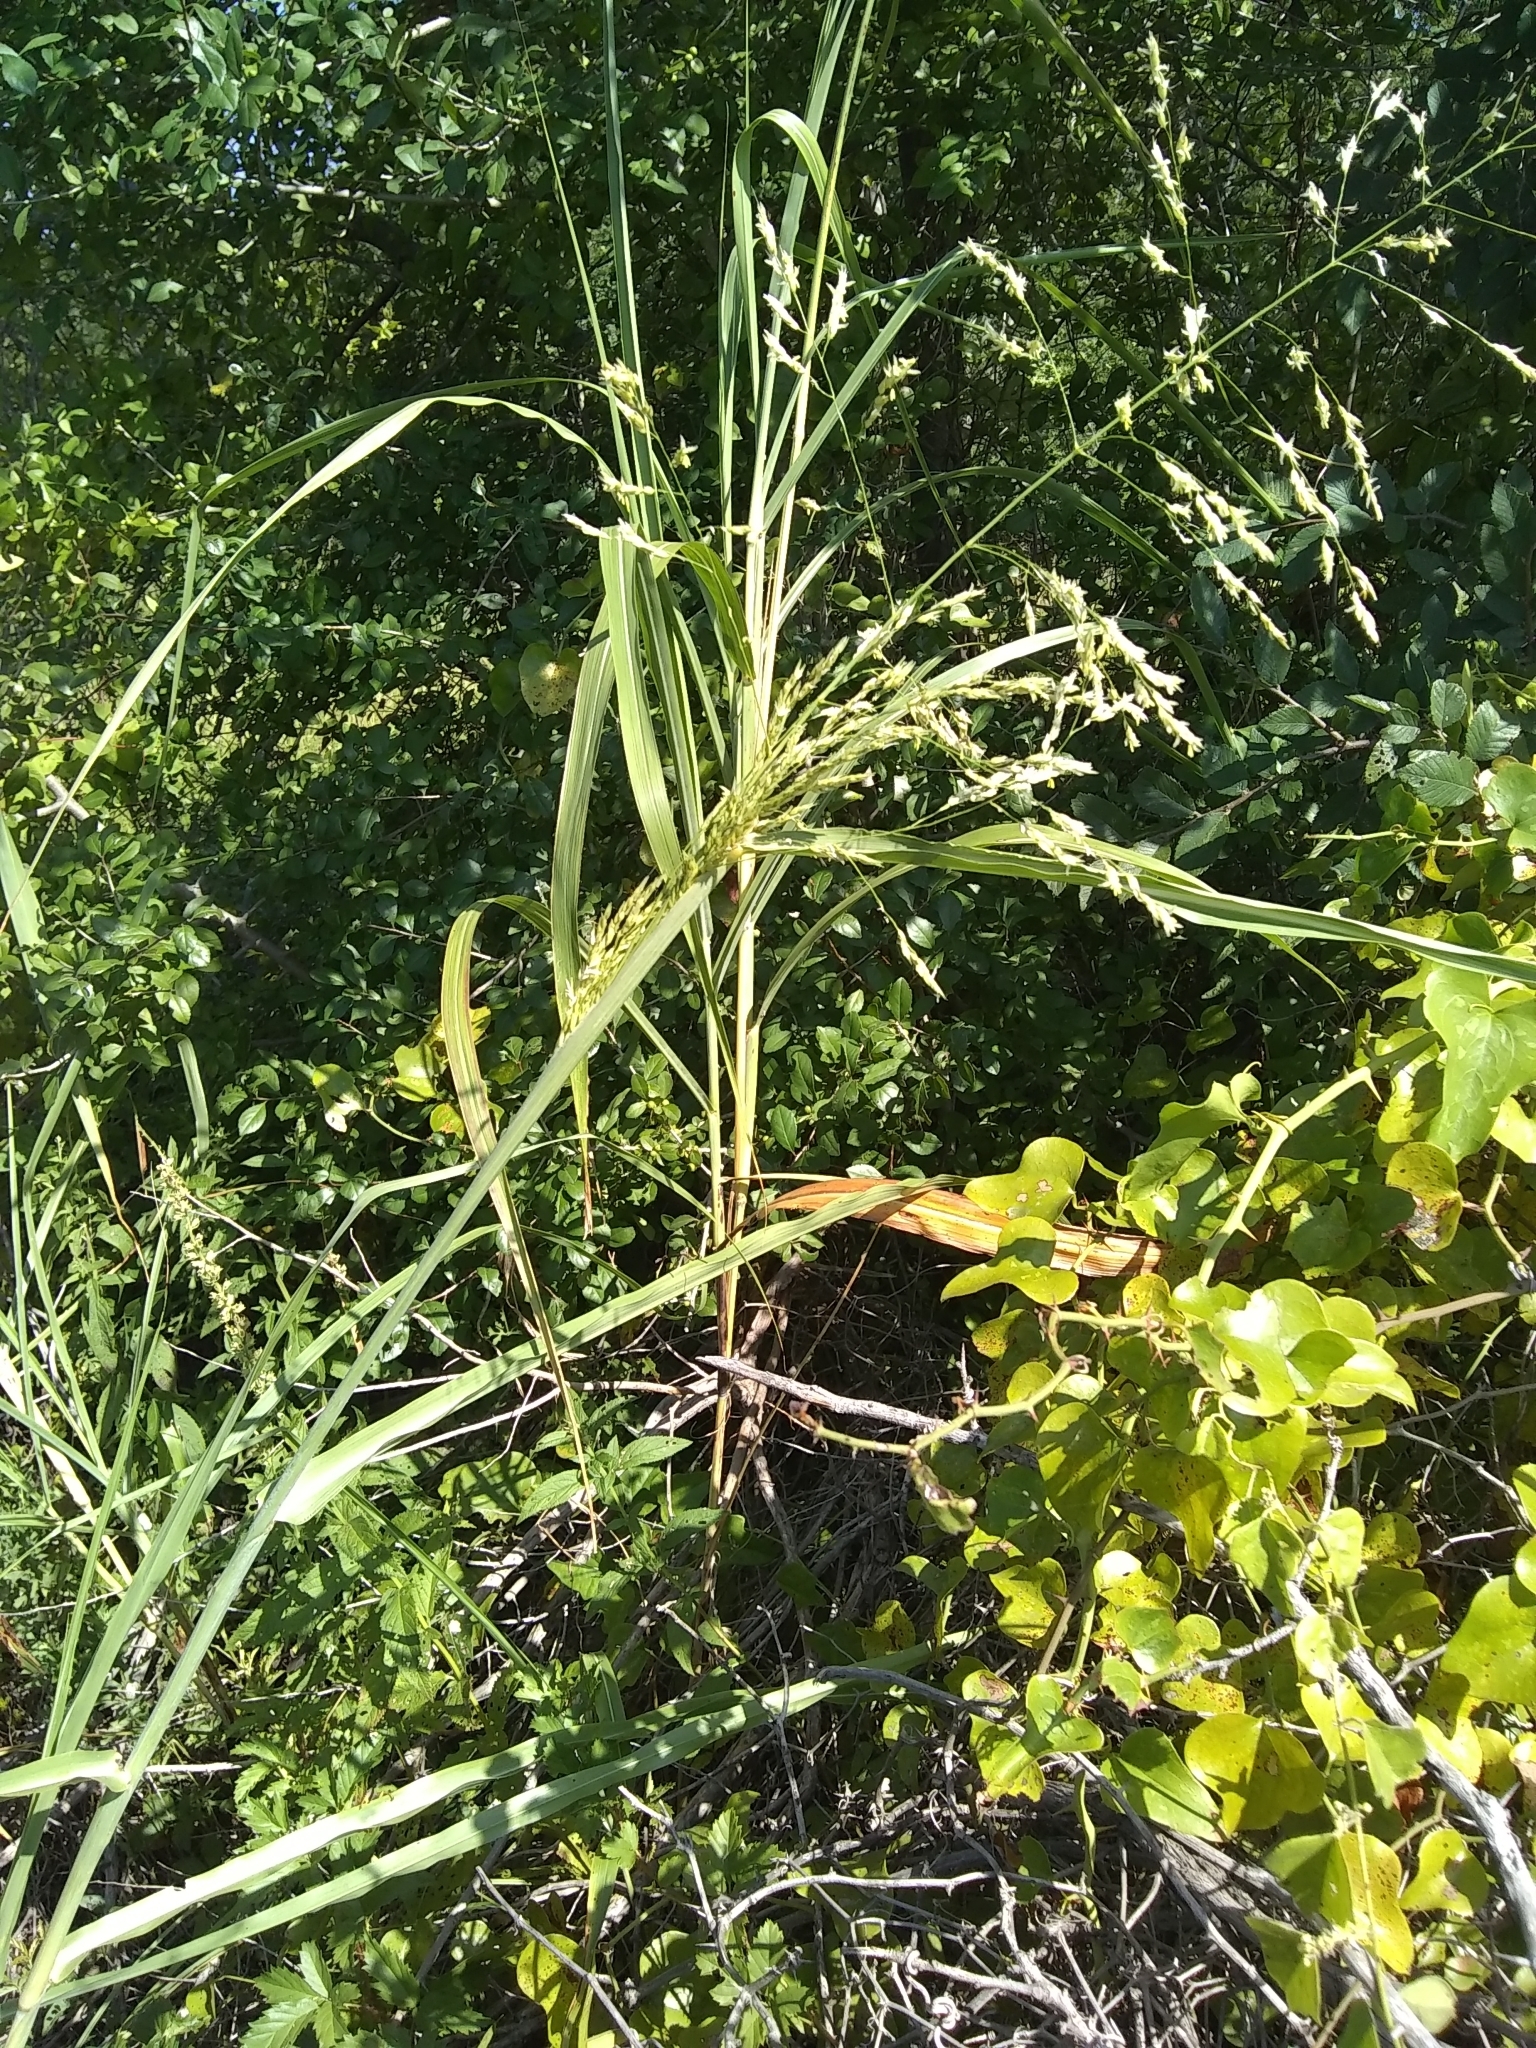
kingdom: Plantae
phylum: Tracheophyta
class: Liliopsida
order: Poales
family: Poaceae
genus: Sorghum
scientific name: Sorghum halepense
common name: Johnson-grass
